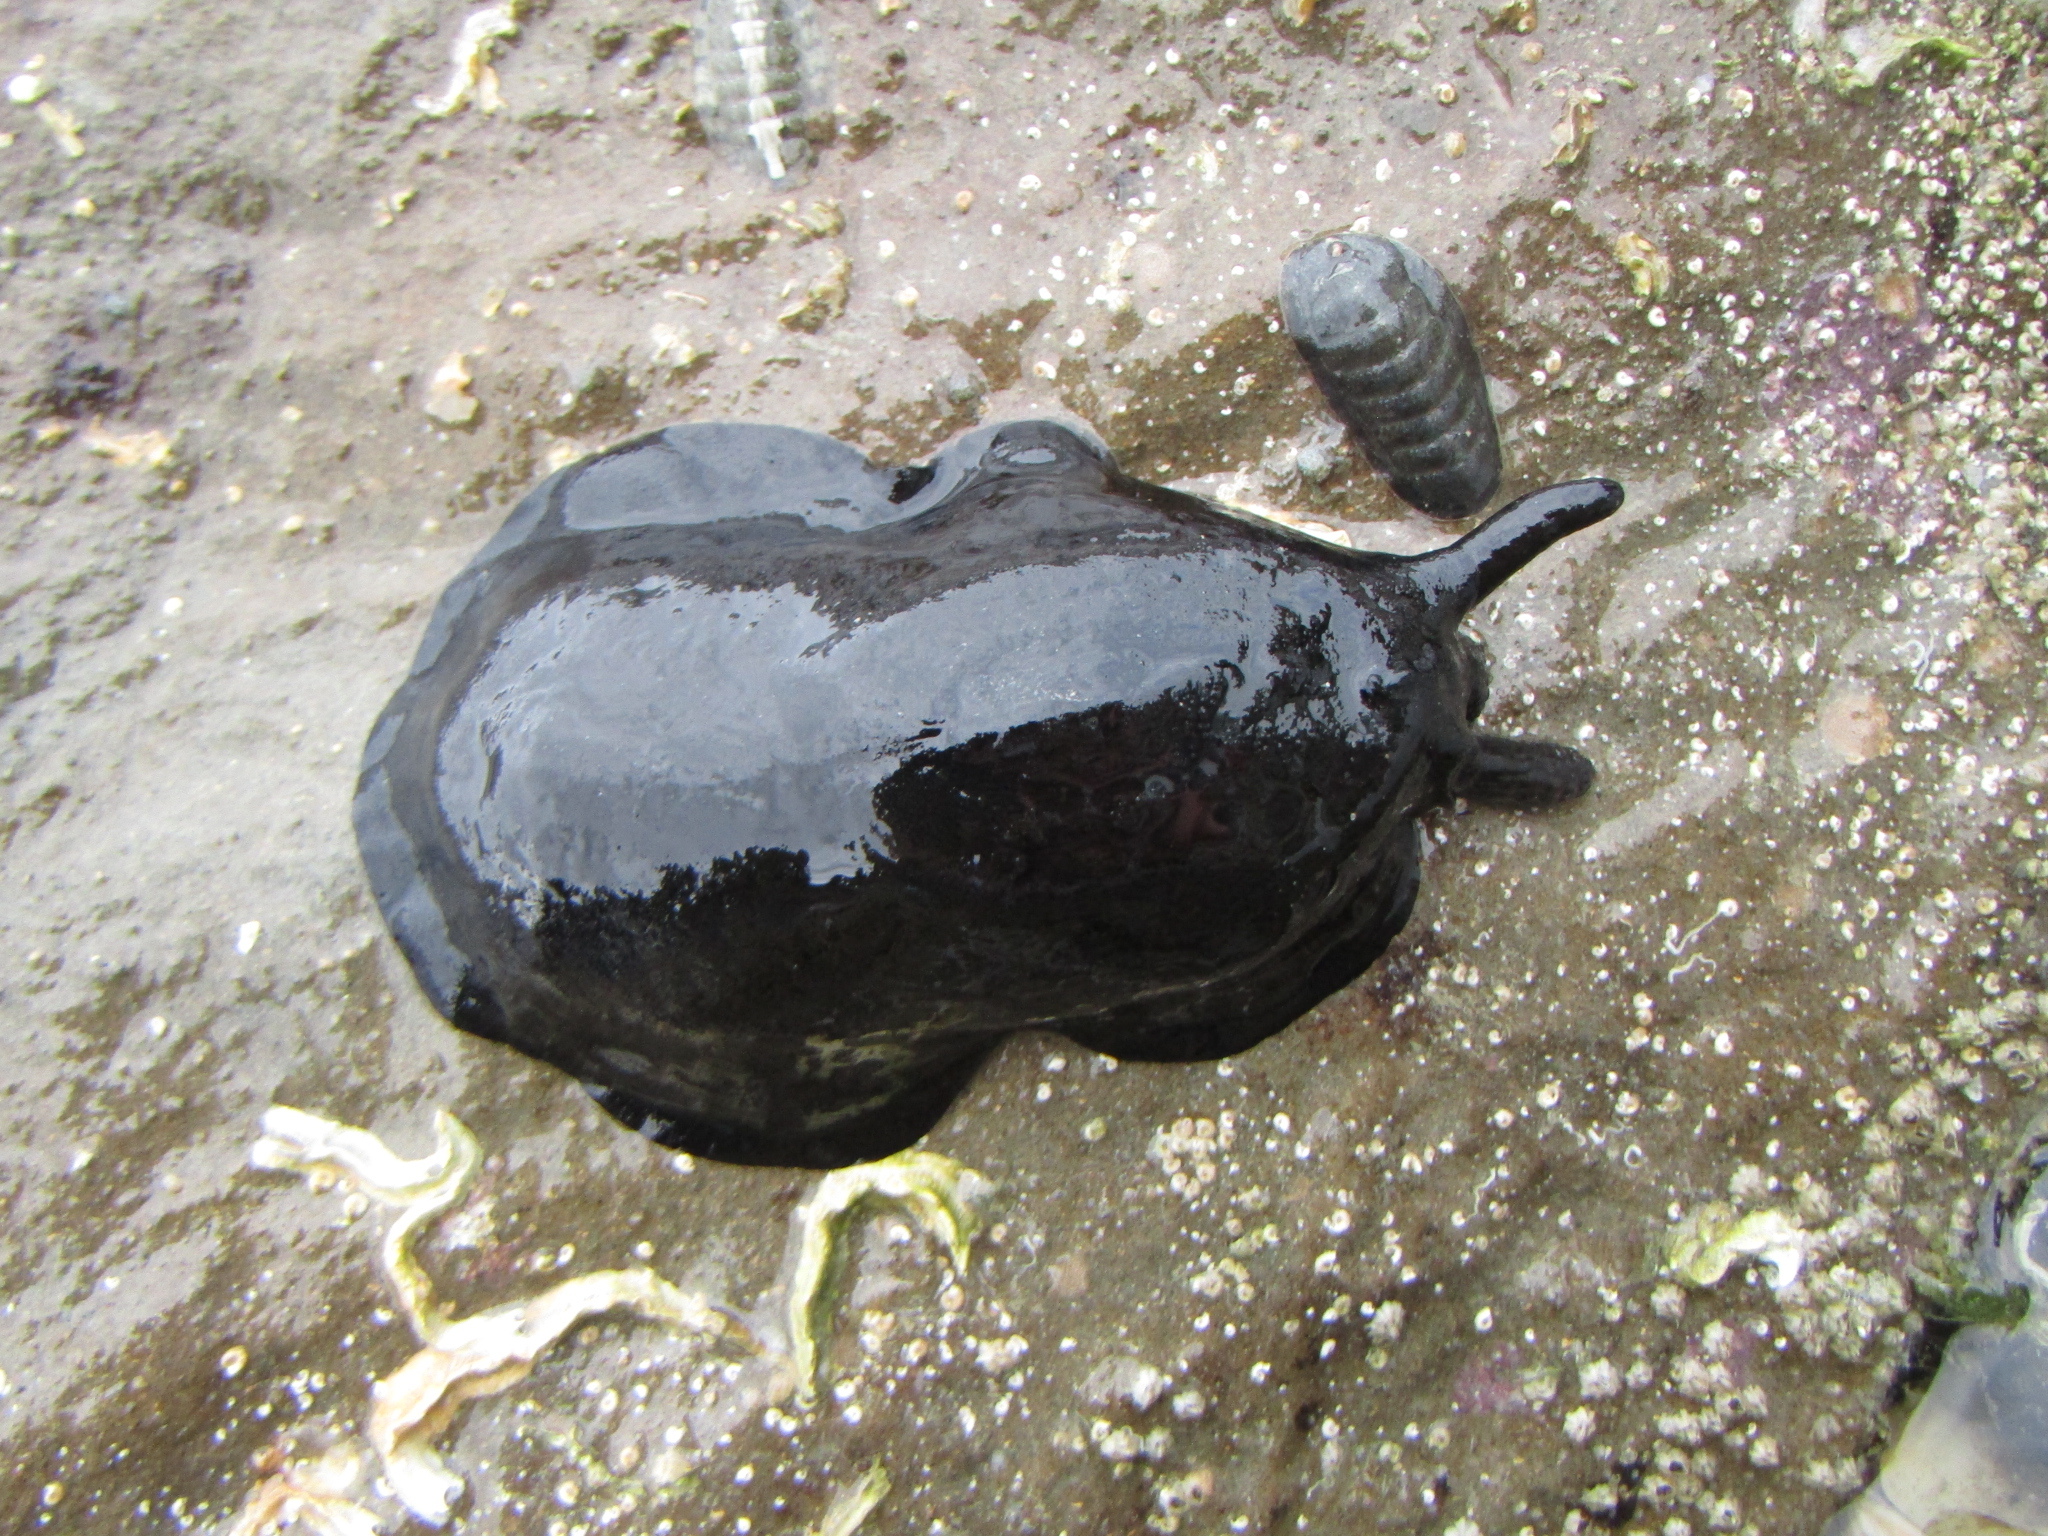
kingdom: Animalia
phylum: Mollusca
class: Gastropoda
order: Lepetellida
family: Fissurellidae
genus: Scutus
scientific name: Scutus breviculus
